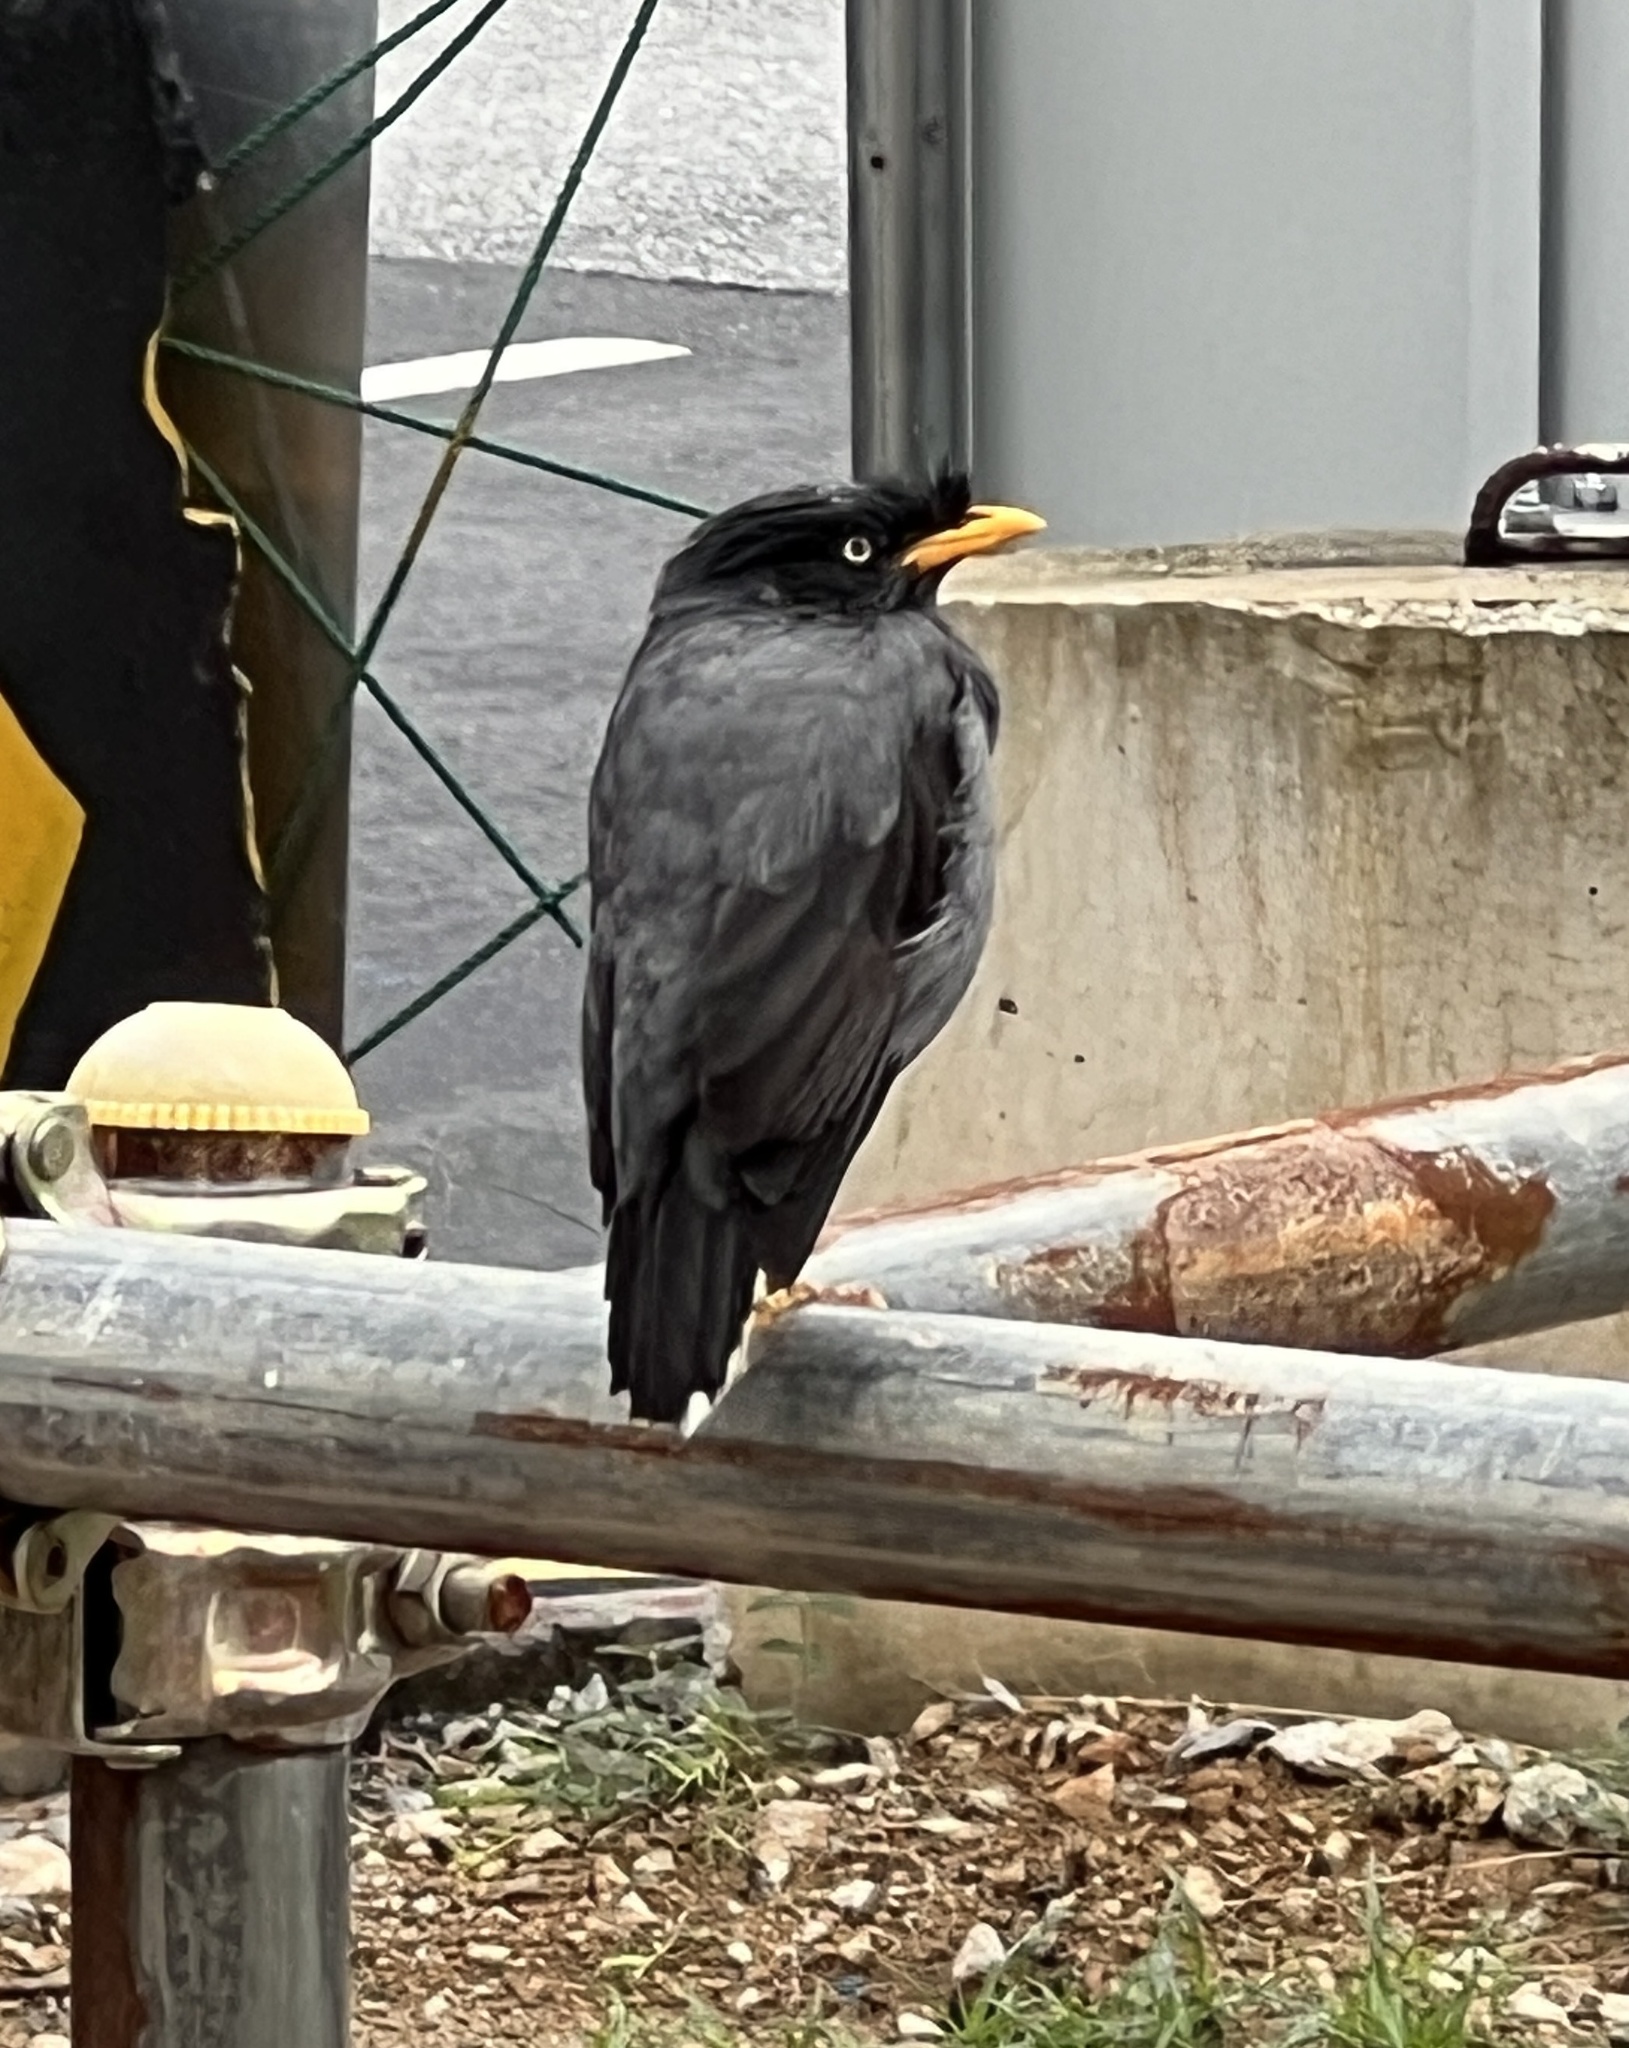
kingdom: Animalia
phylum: Chordata
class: Aves
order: Passeriformes
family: Sturnidae
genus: Acridotheres
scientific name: Acridotheres javanicus
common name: Javan myna
